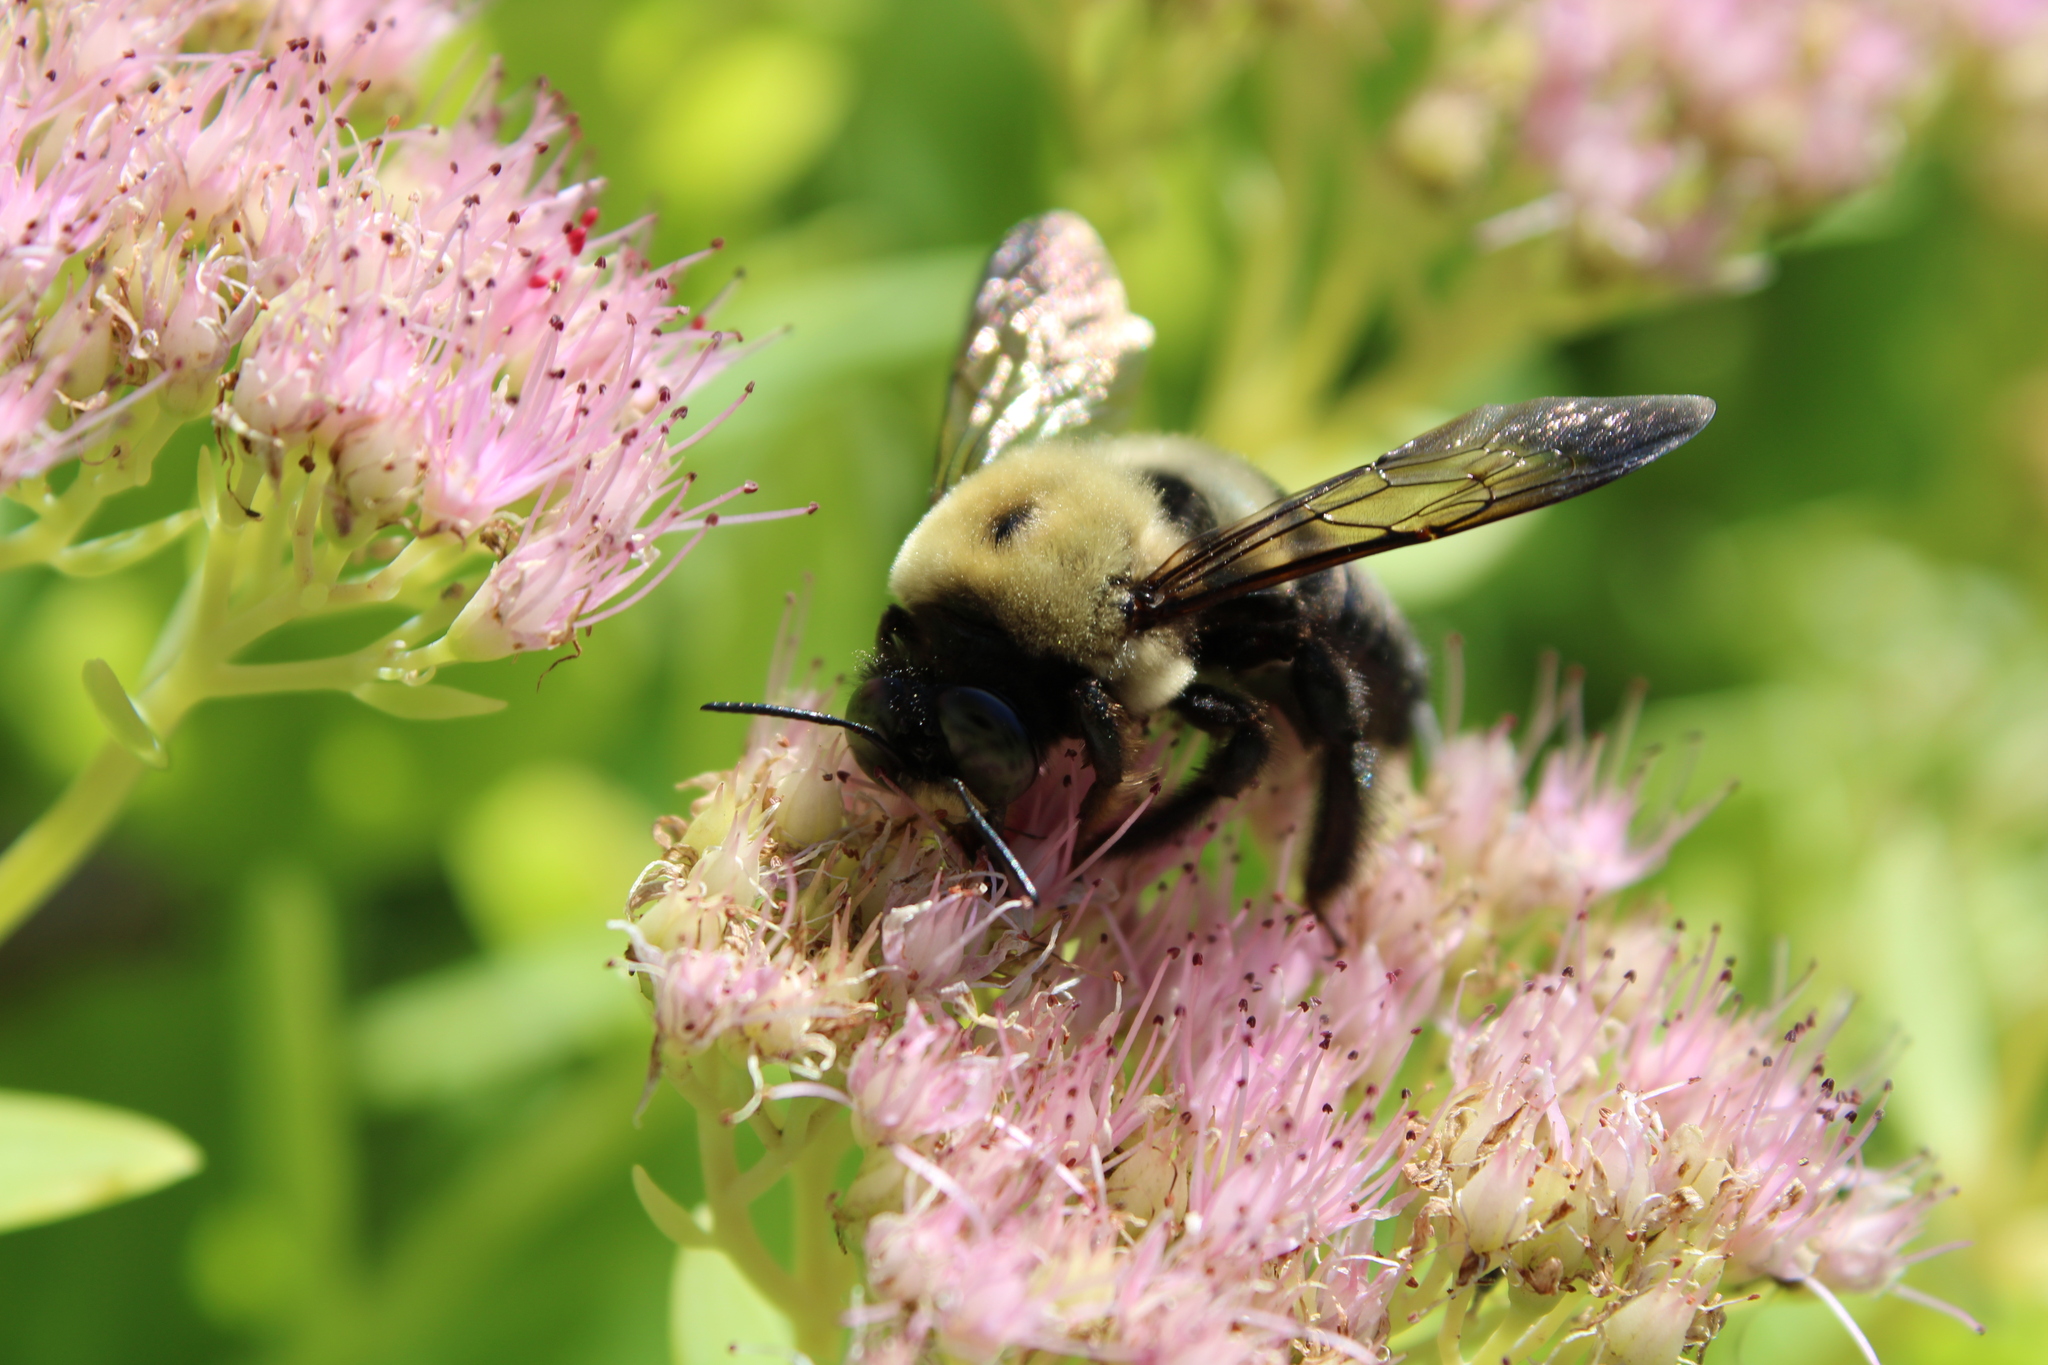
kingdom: Animalia
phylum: Arthropoda
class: Insecta
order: Hymenoptera
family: Apidae
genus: Xylocopa
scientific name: Xylocopa virginica
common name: Carpenter bee
